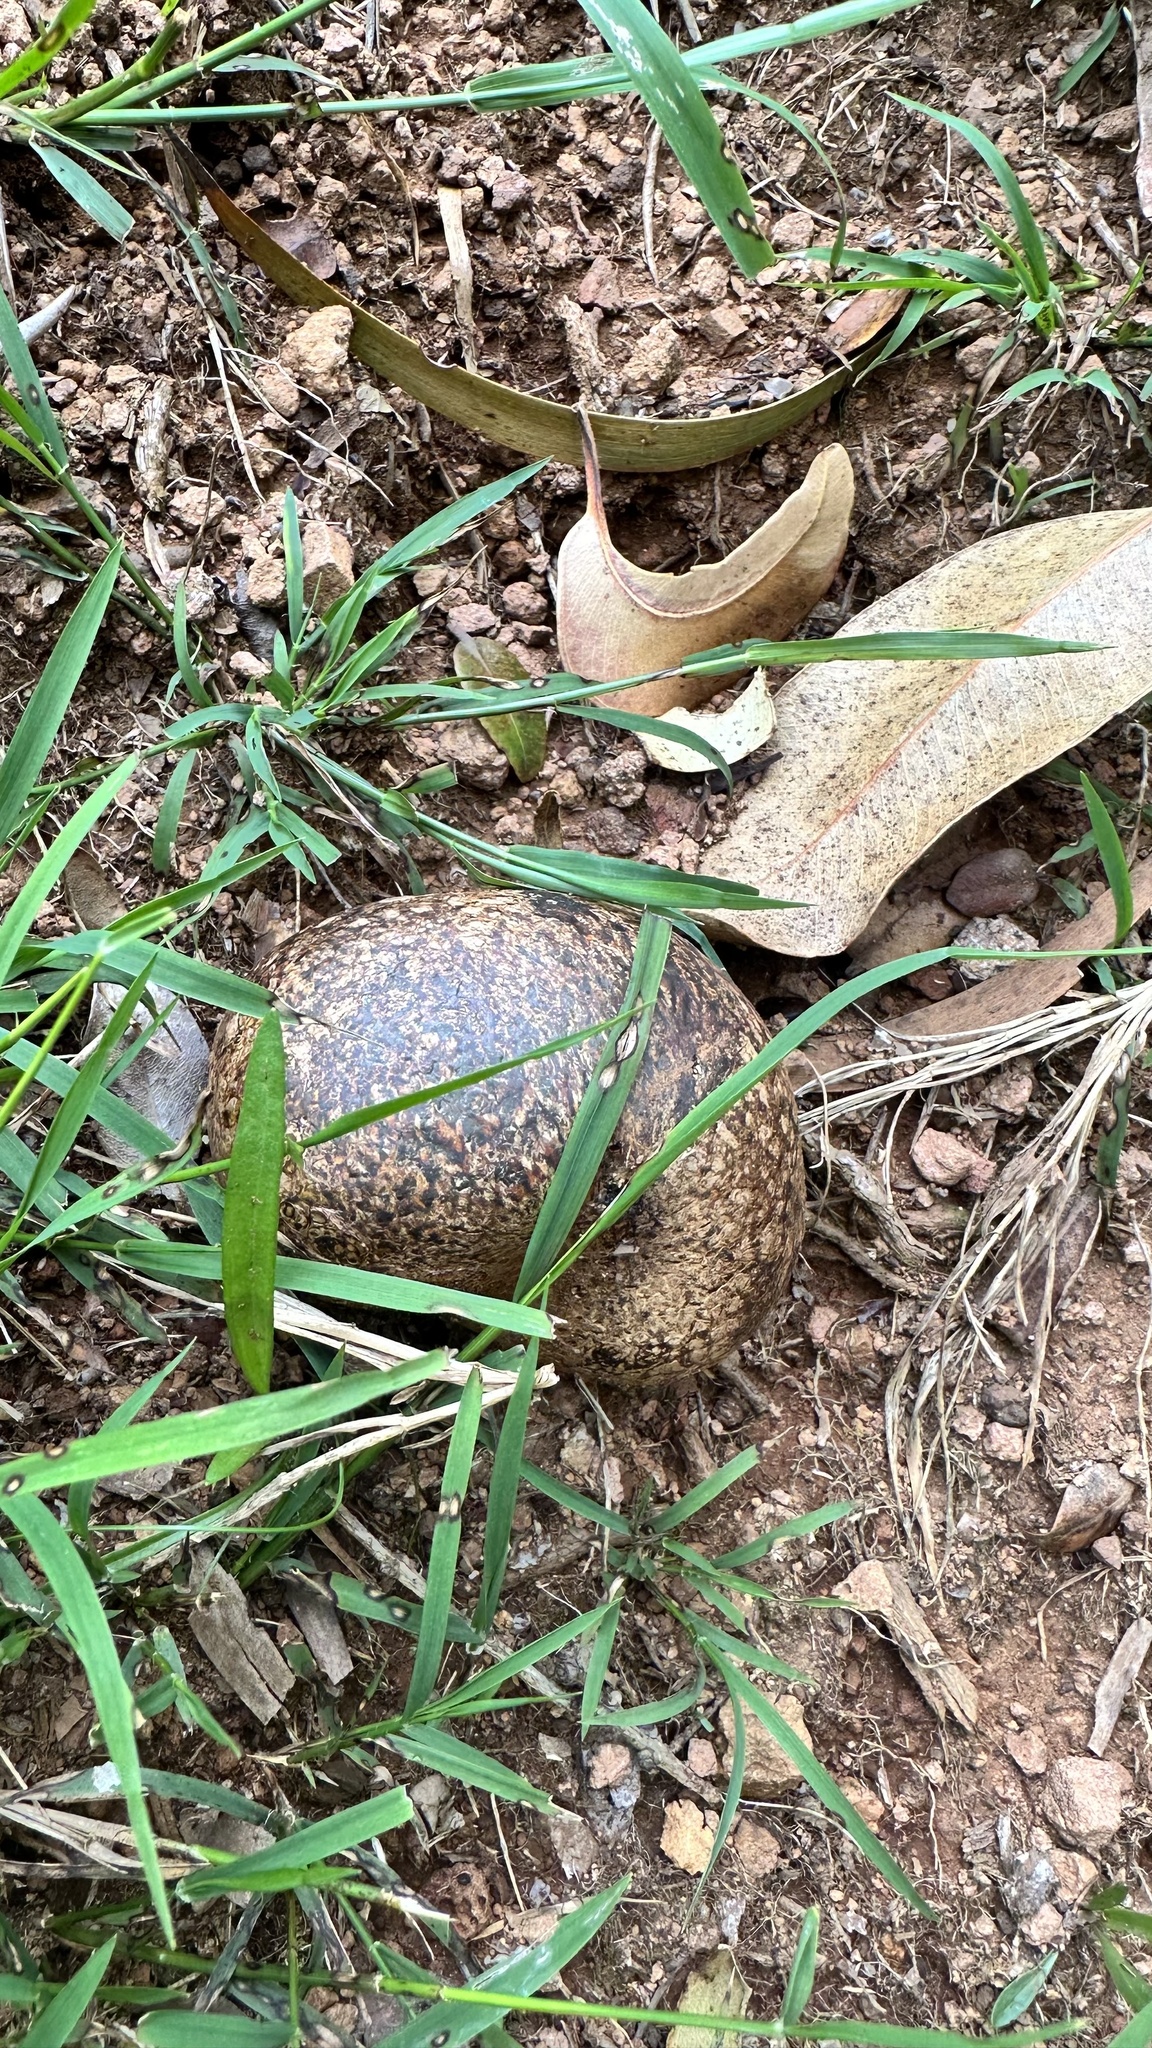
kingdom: Fungi
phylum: Basidiomycota
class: Agaricomycetes
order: Boletales
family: Sclerodermataceae
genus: Pisolithus
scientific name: Pisolithus arhizus
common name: Dyeball
